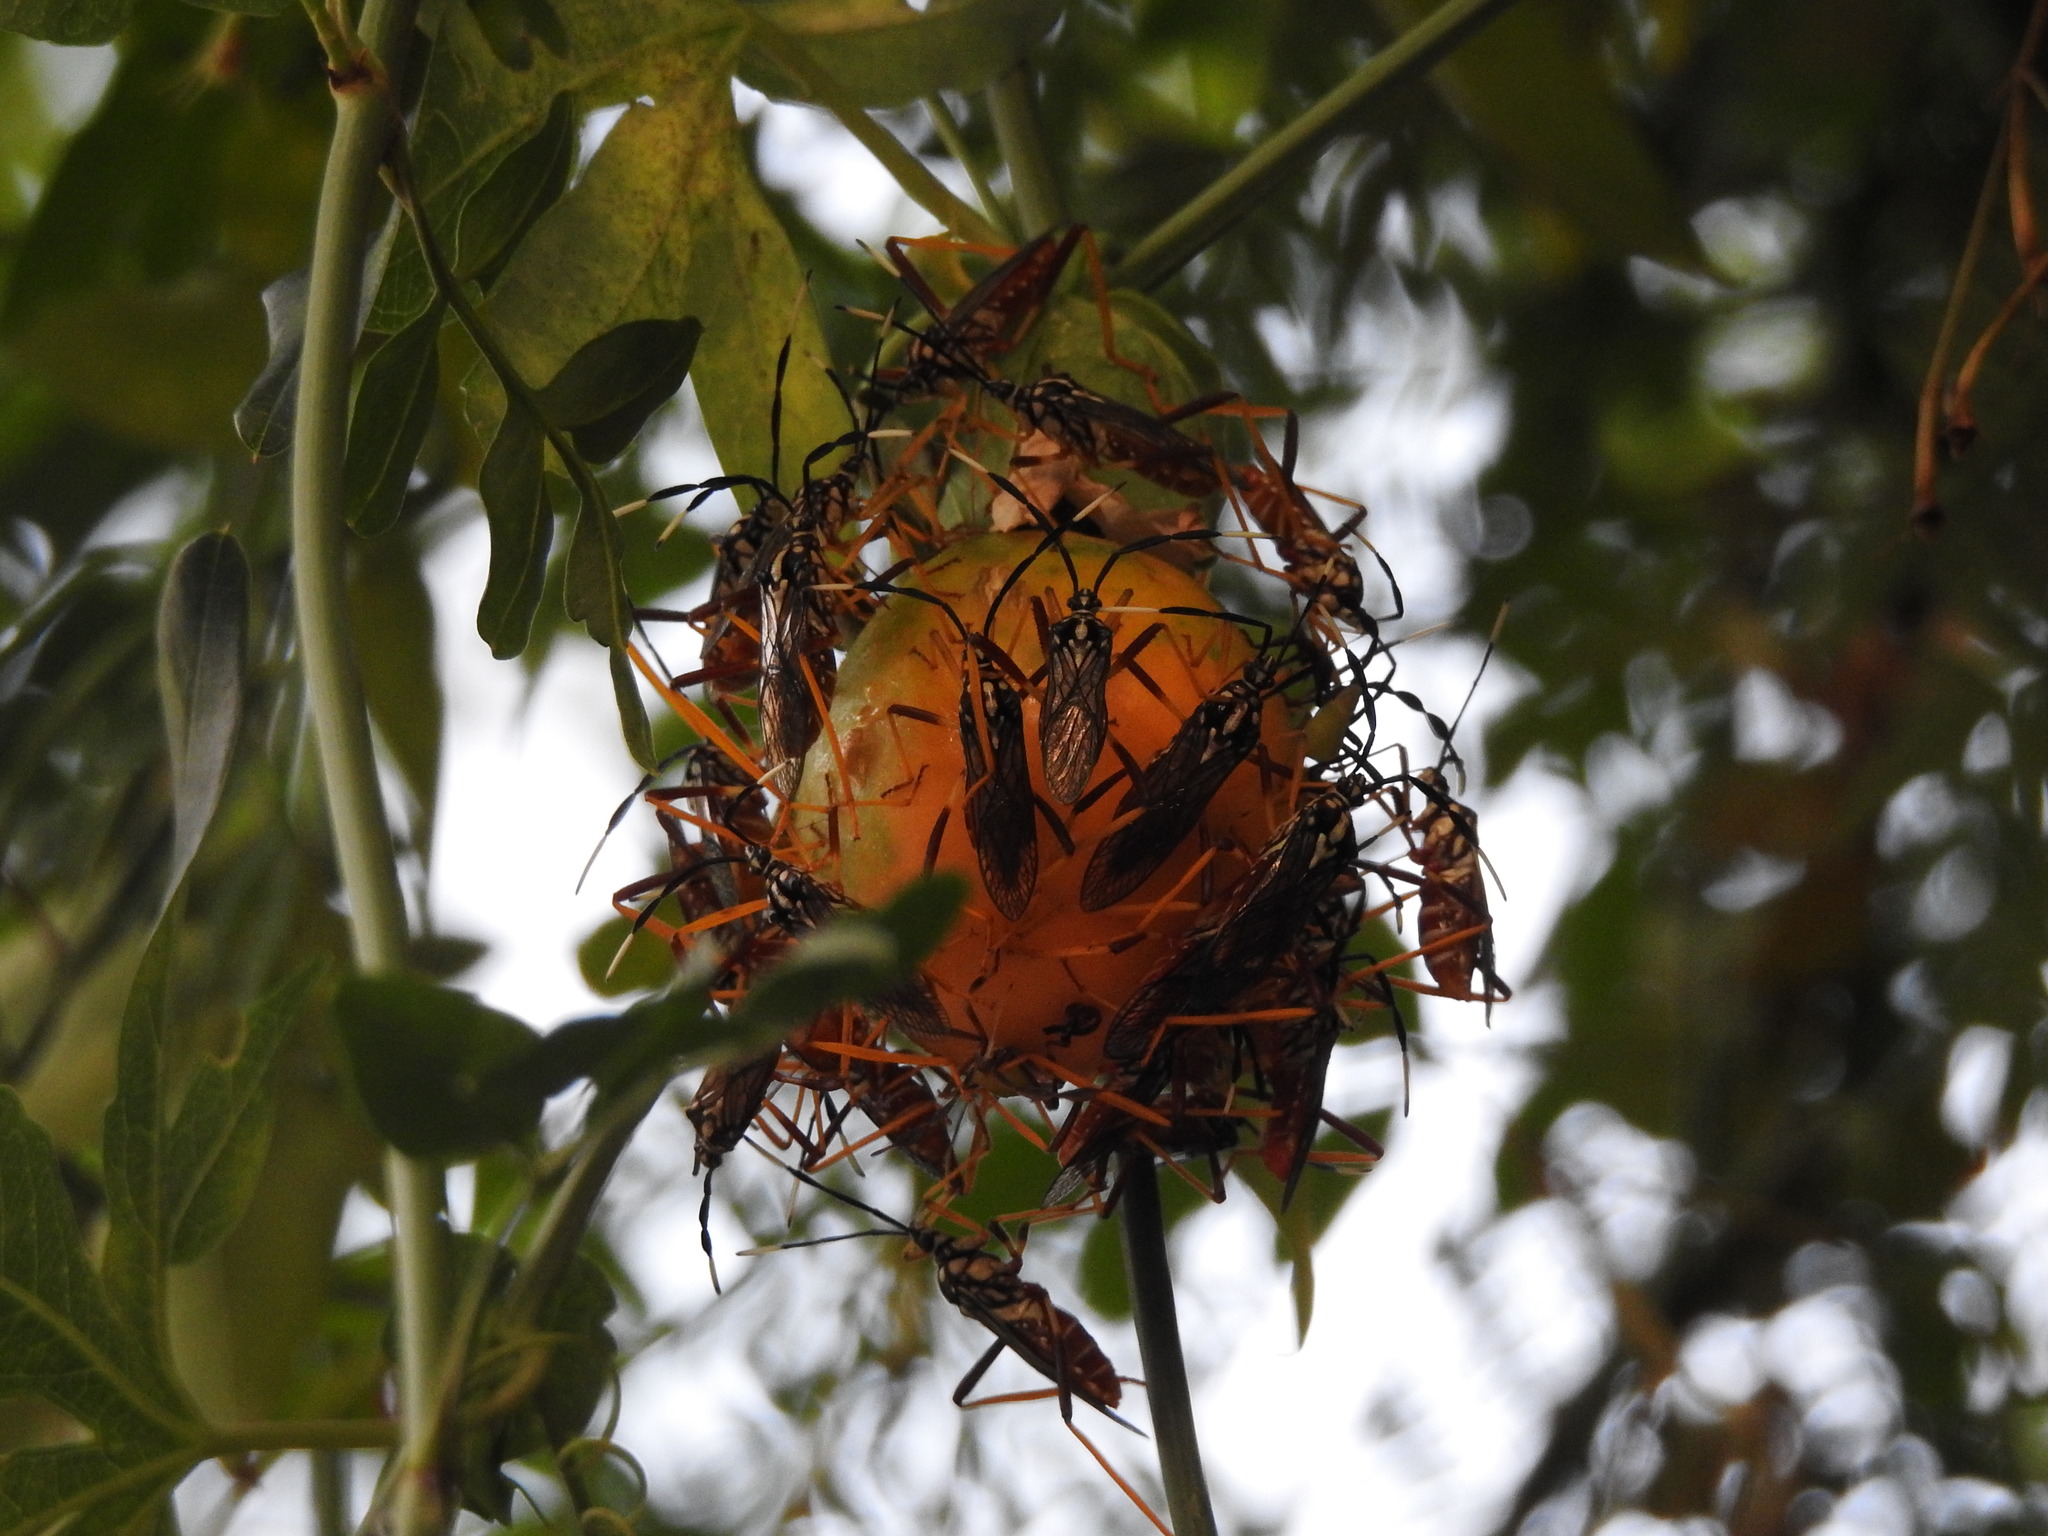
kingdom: Animalia
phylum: Arthropoda
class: Insecta
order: Hemiptera
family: Coreidae
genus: Holhymenia
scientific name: Holhymenia histrio
